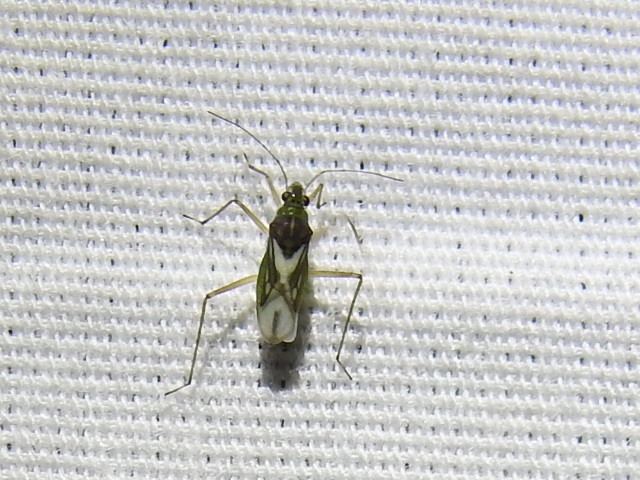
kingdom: Animalia
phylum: Arthropoda
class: Insecta
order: Hemiptera
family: Mesoveliidae
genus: Mesovelia
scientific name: Mesovelia mulsanti
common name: Water treaders
